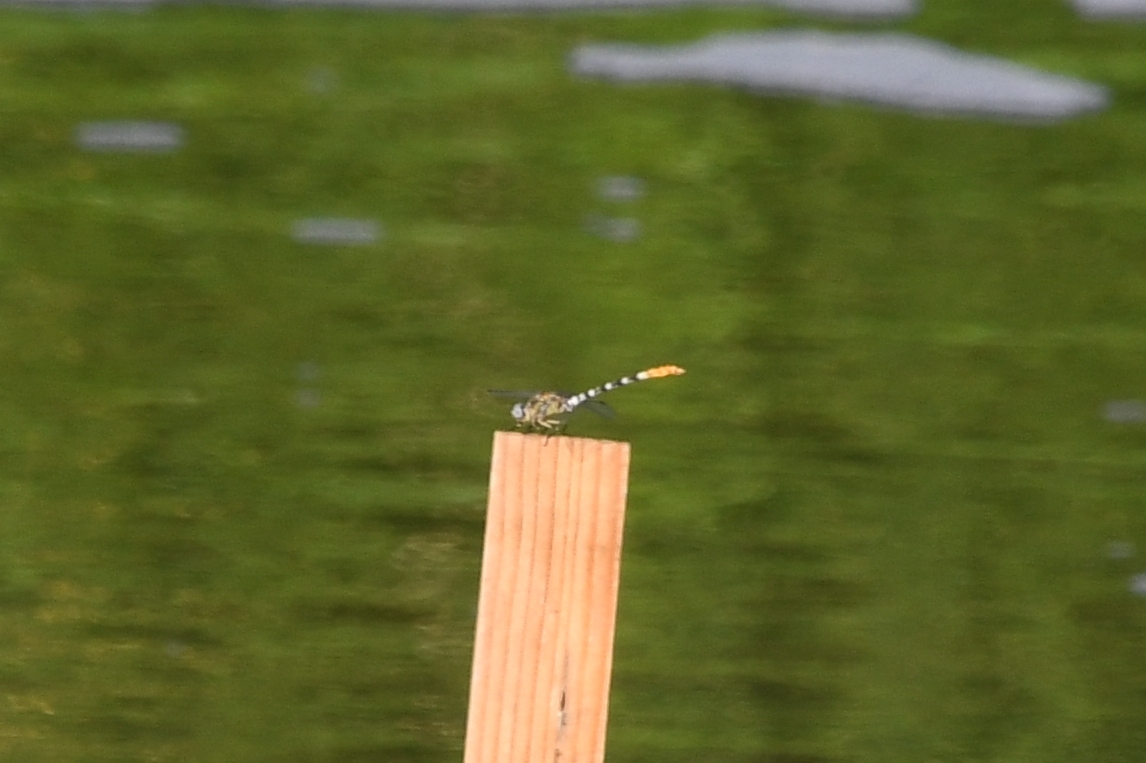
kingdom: Animalia
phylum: Arthropoda
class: Insecta
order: Odonata
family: Gomphidae
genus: Erpetogomphus
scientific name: Erpetogomphus compositus
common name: White-belted ringtail
